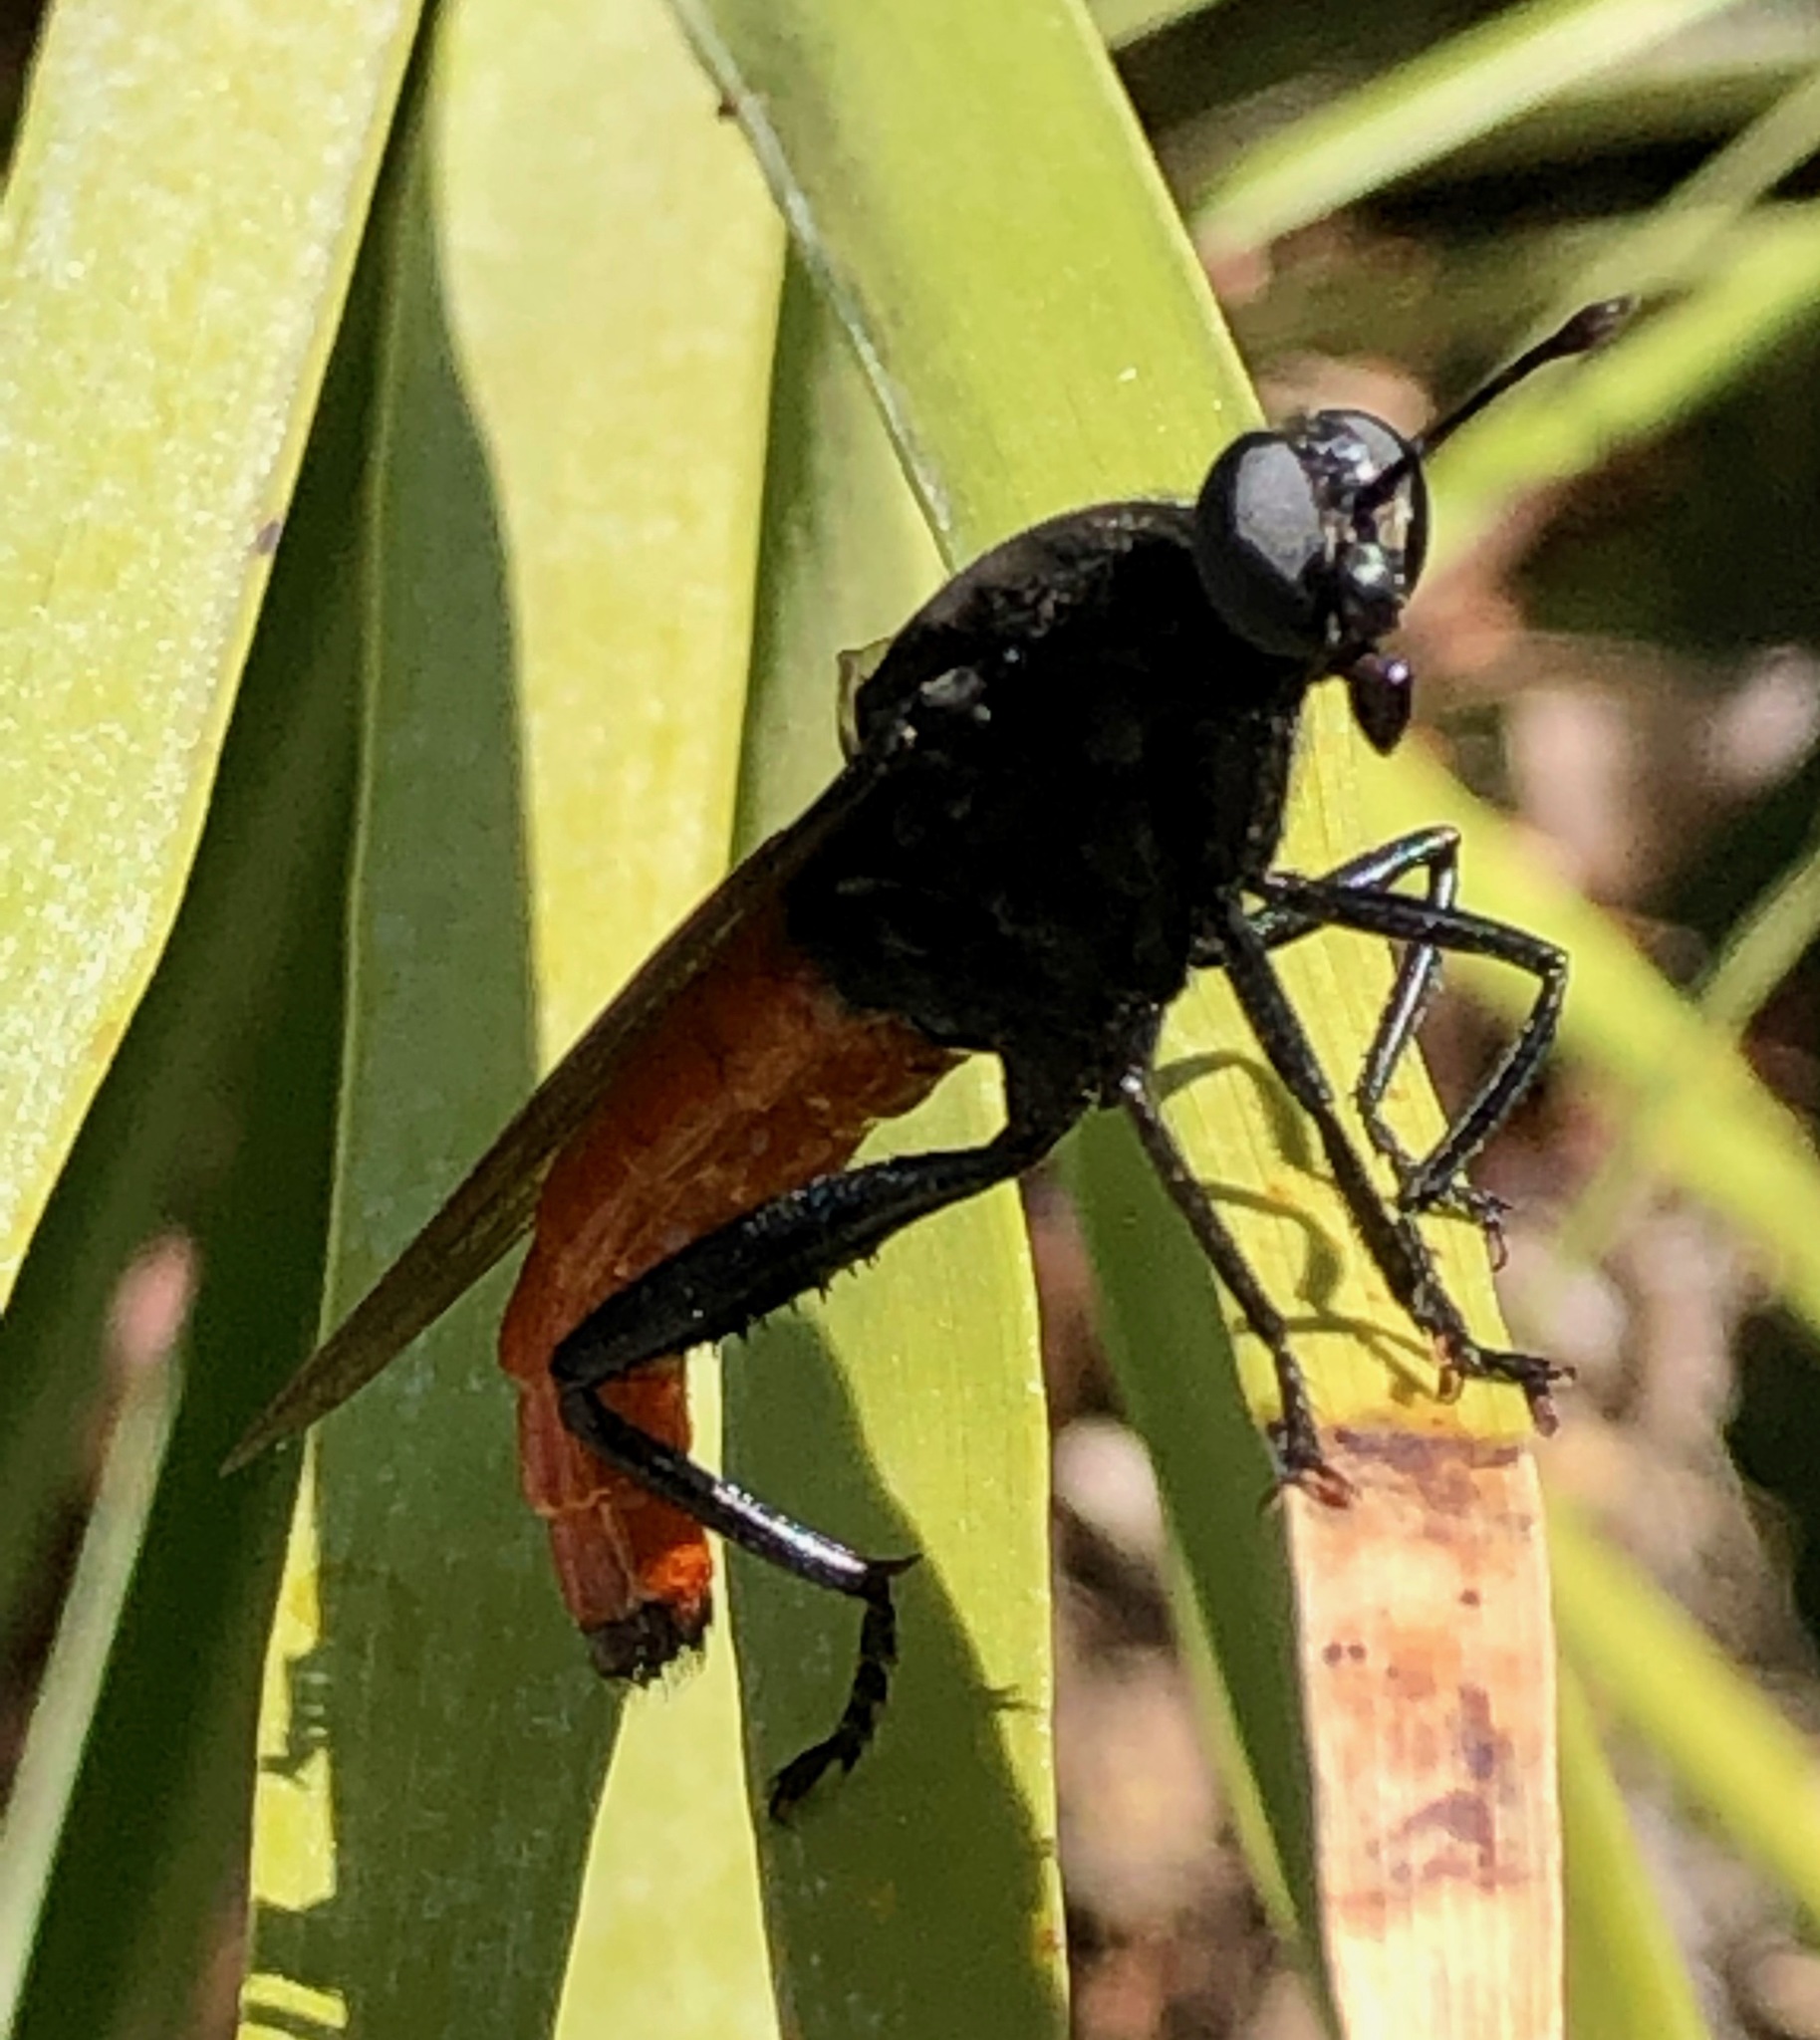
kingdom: Animalia
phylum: Arthropoda
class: Insecta
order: Diptera
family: Mydidae
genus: Mydas
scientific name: Mydas ventralis
